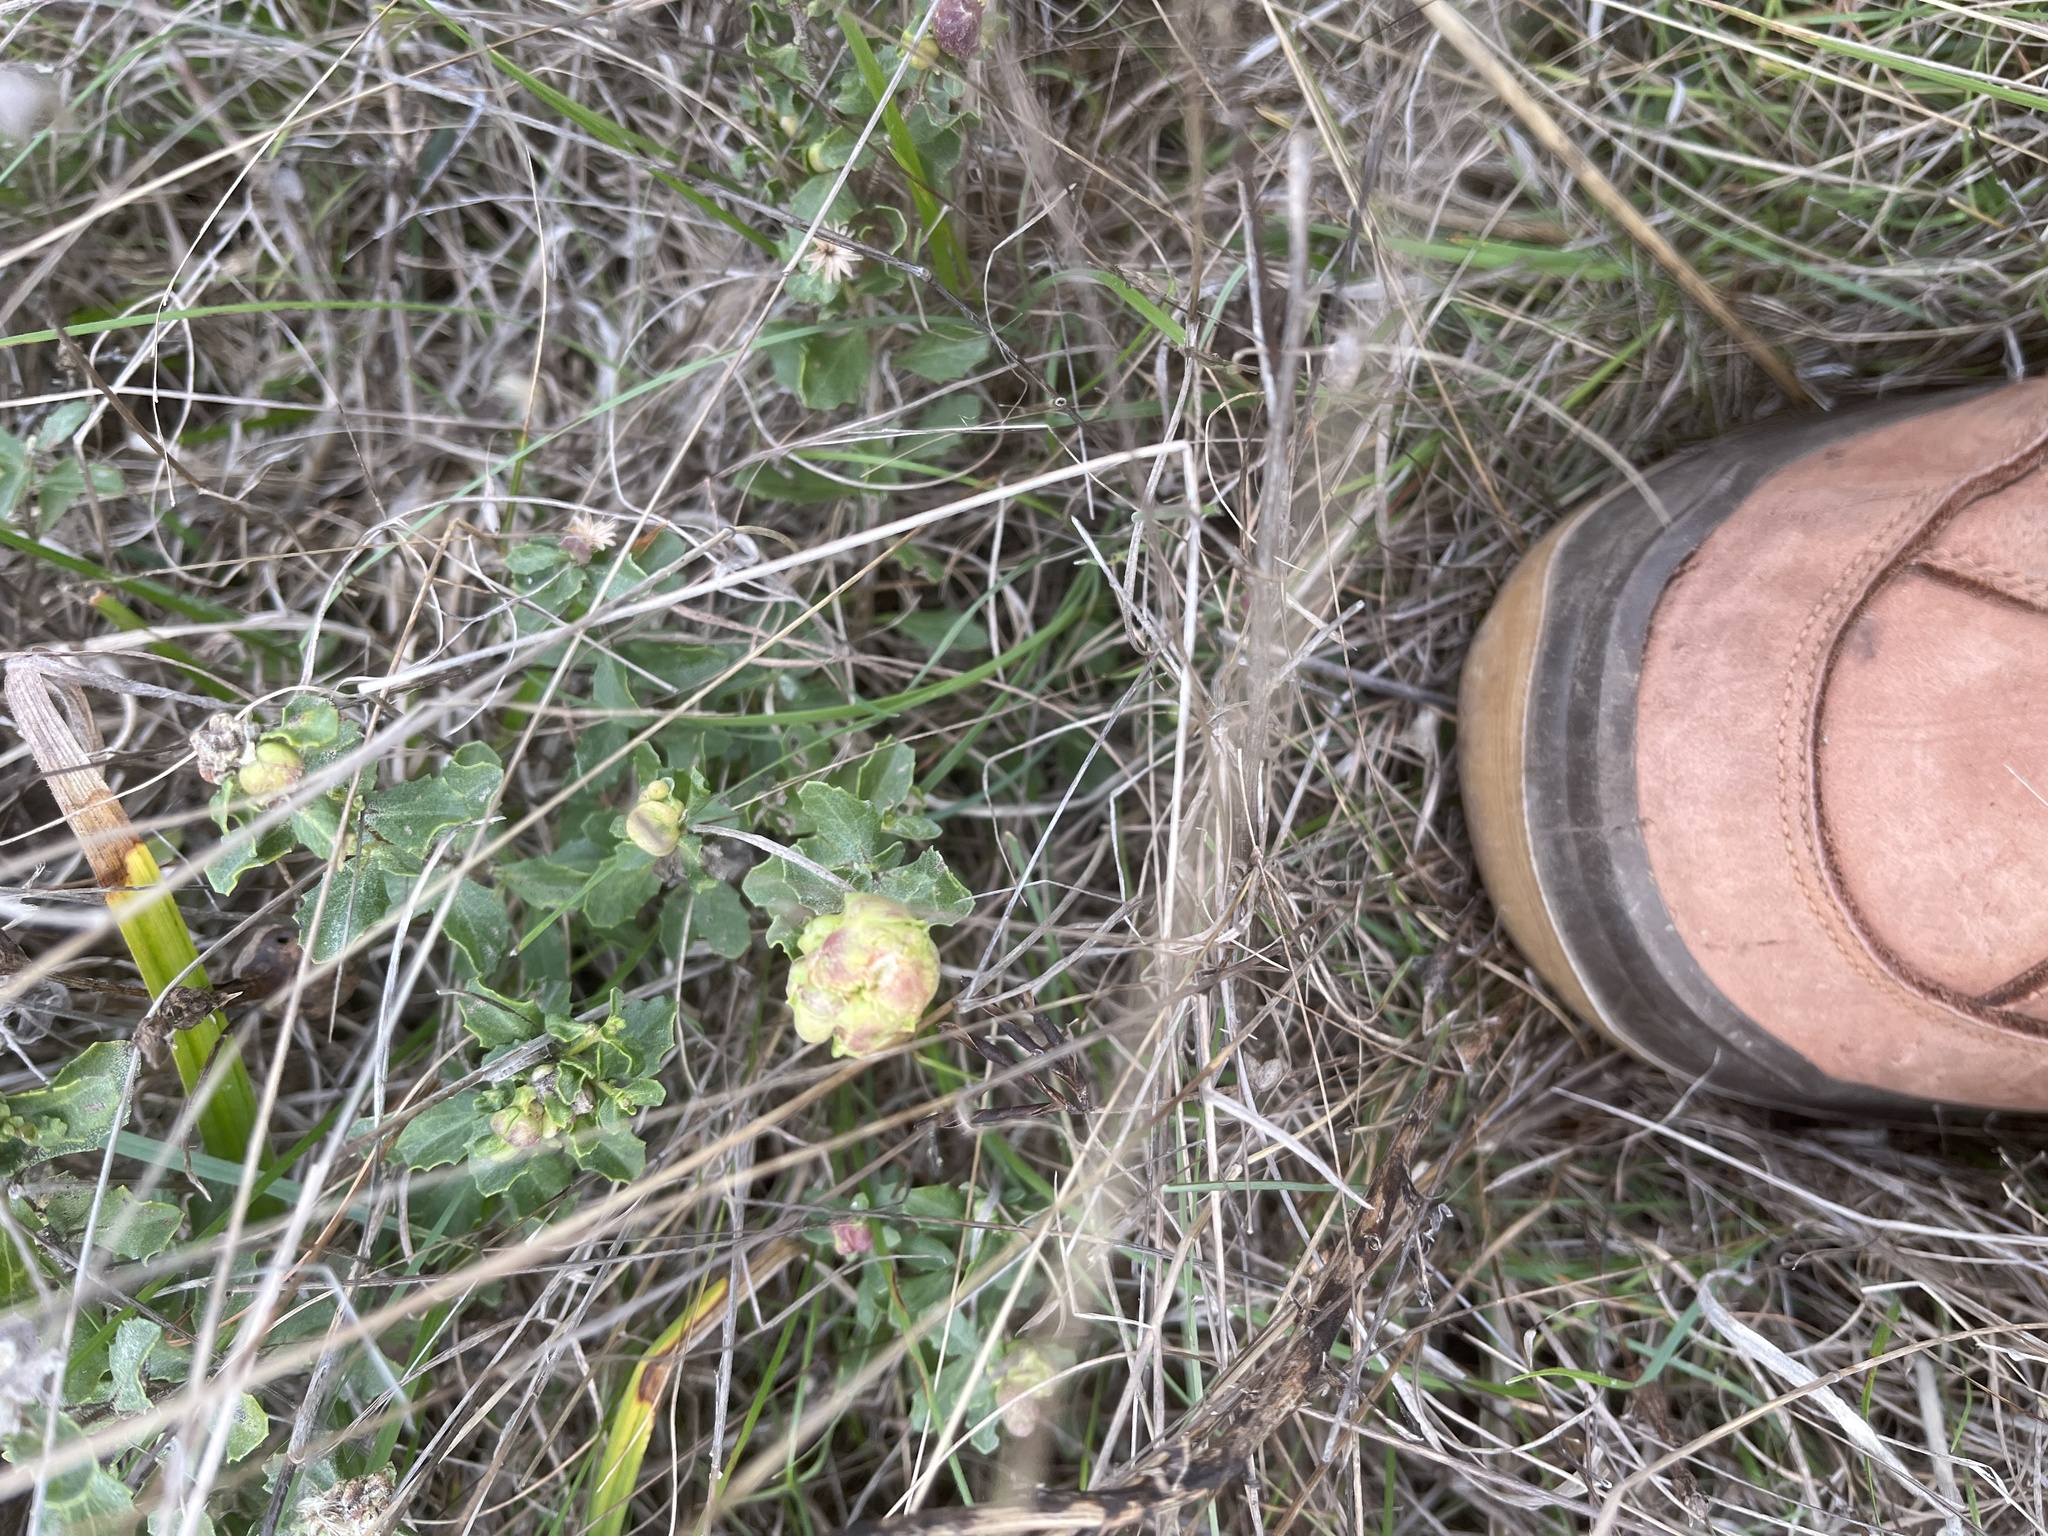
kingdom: Animalia
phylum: Arthropoda
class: Insecta
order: Diptera
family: Cecidomyiidae
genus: Rhopalomyia
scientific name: Rhopalomyia californica
